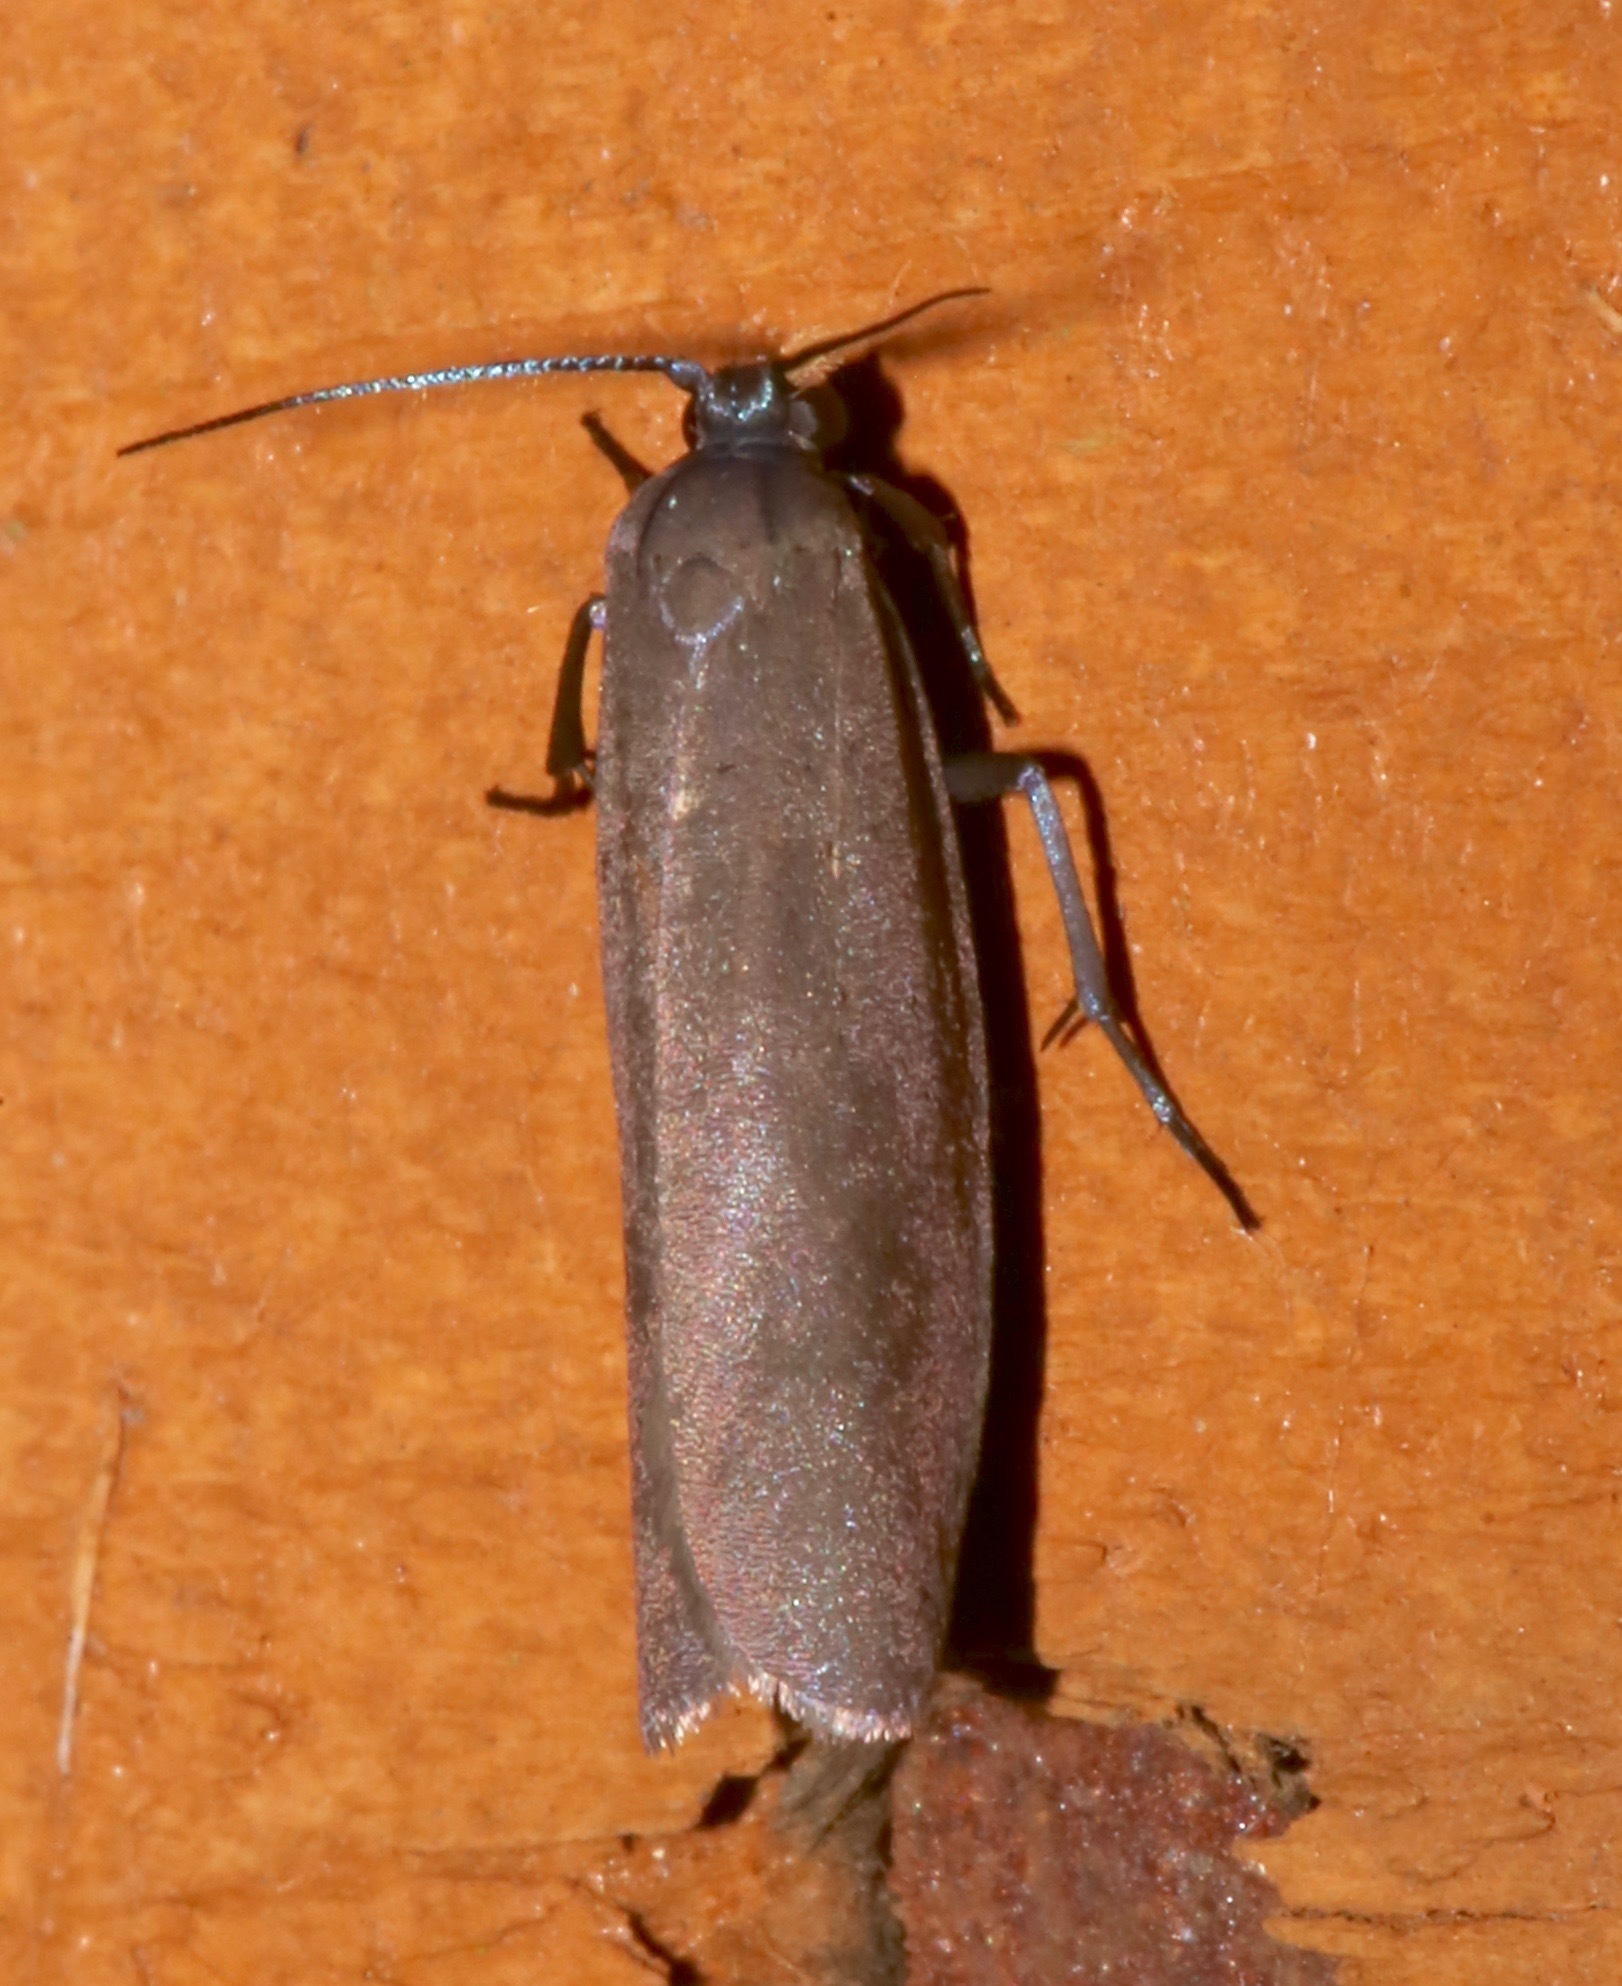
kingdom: Animalia
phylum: Arthropoda
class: Insecta
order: Lepidoptera
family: Urodidae
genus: Urodus
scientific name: Urodus parvula
